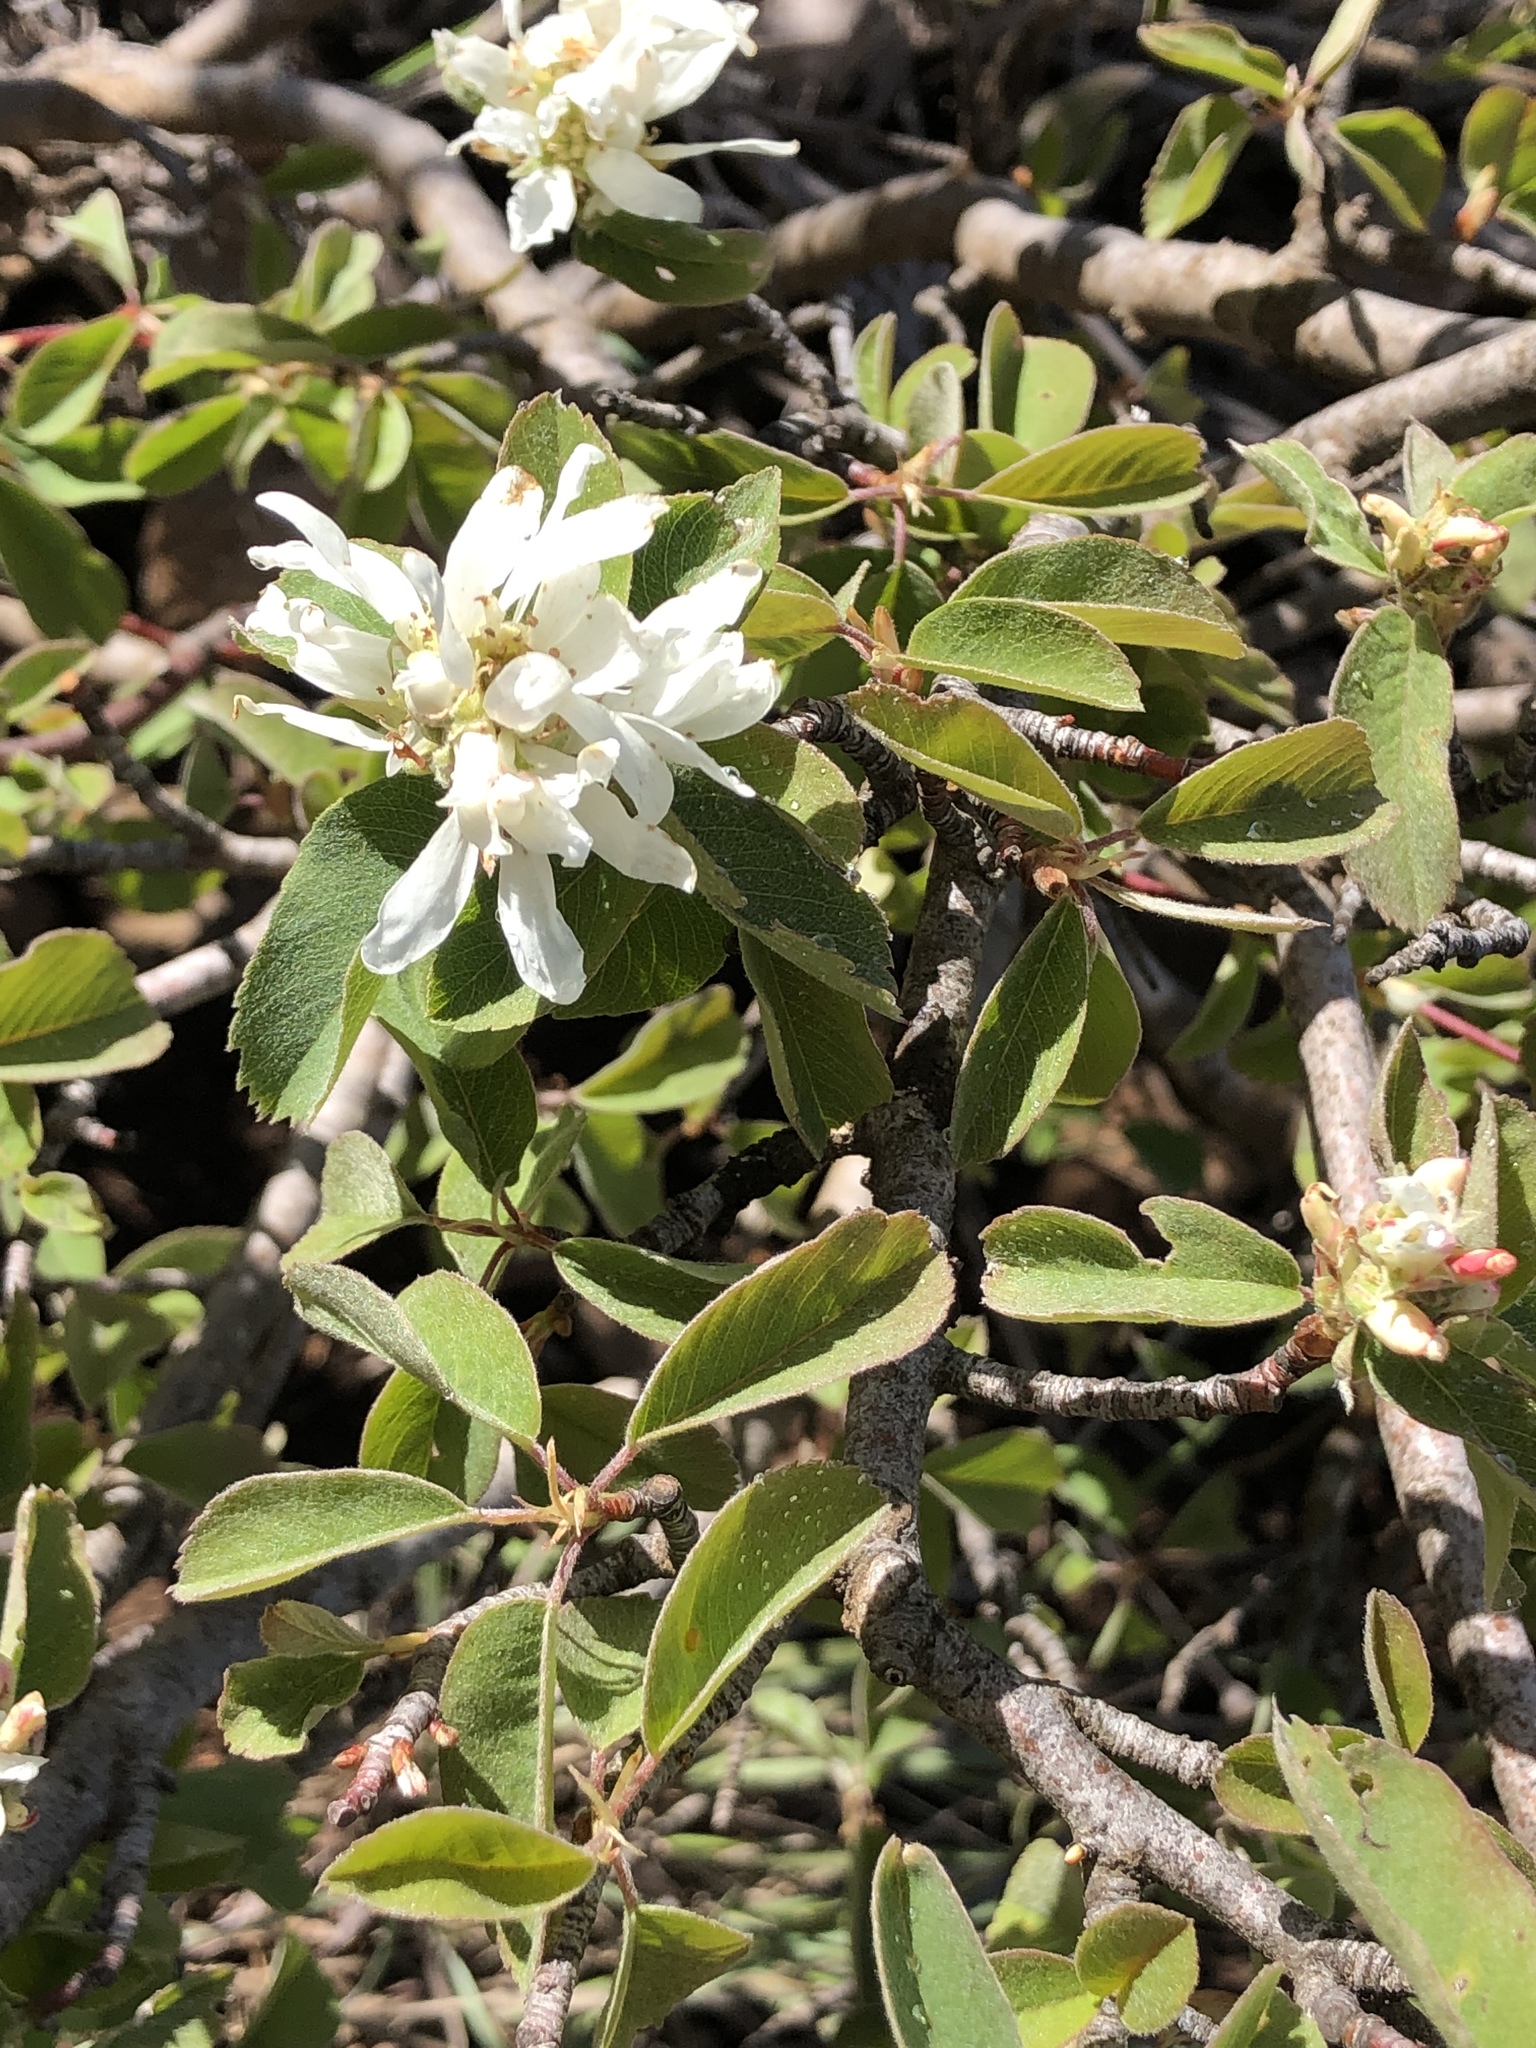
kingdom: Plantae
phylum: Tracheophyta
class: Magnoliopsida
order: Rosales
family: Rosaceae
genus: Amelanchier
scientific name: Amelanchier alnifolia
